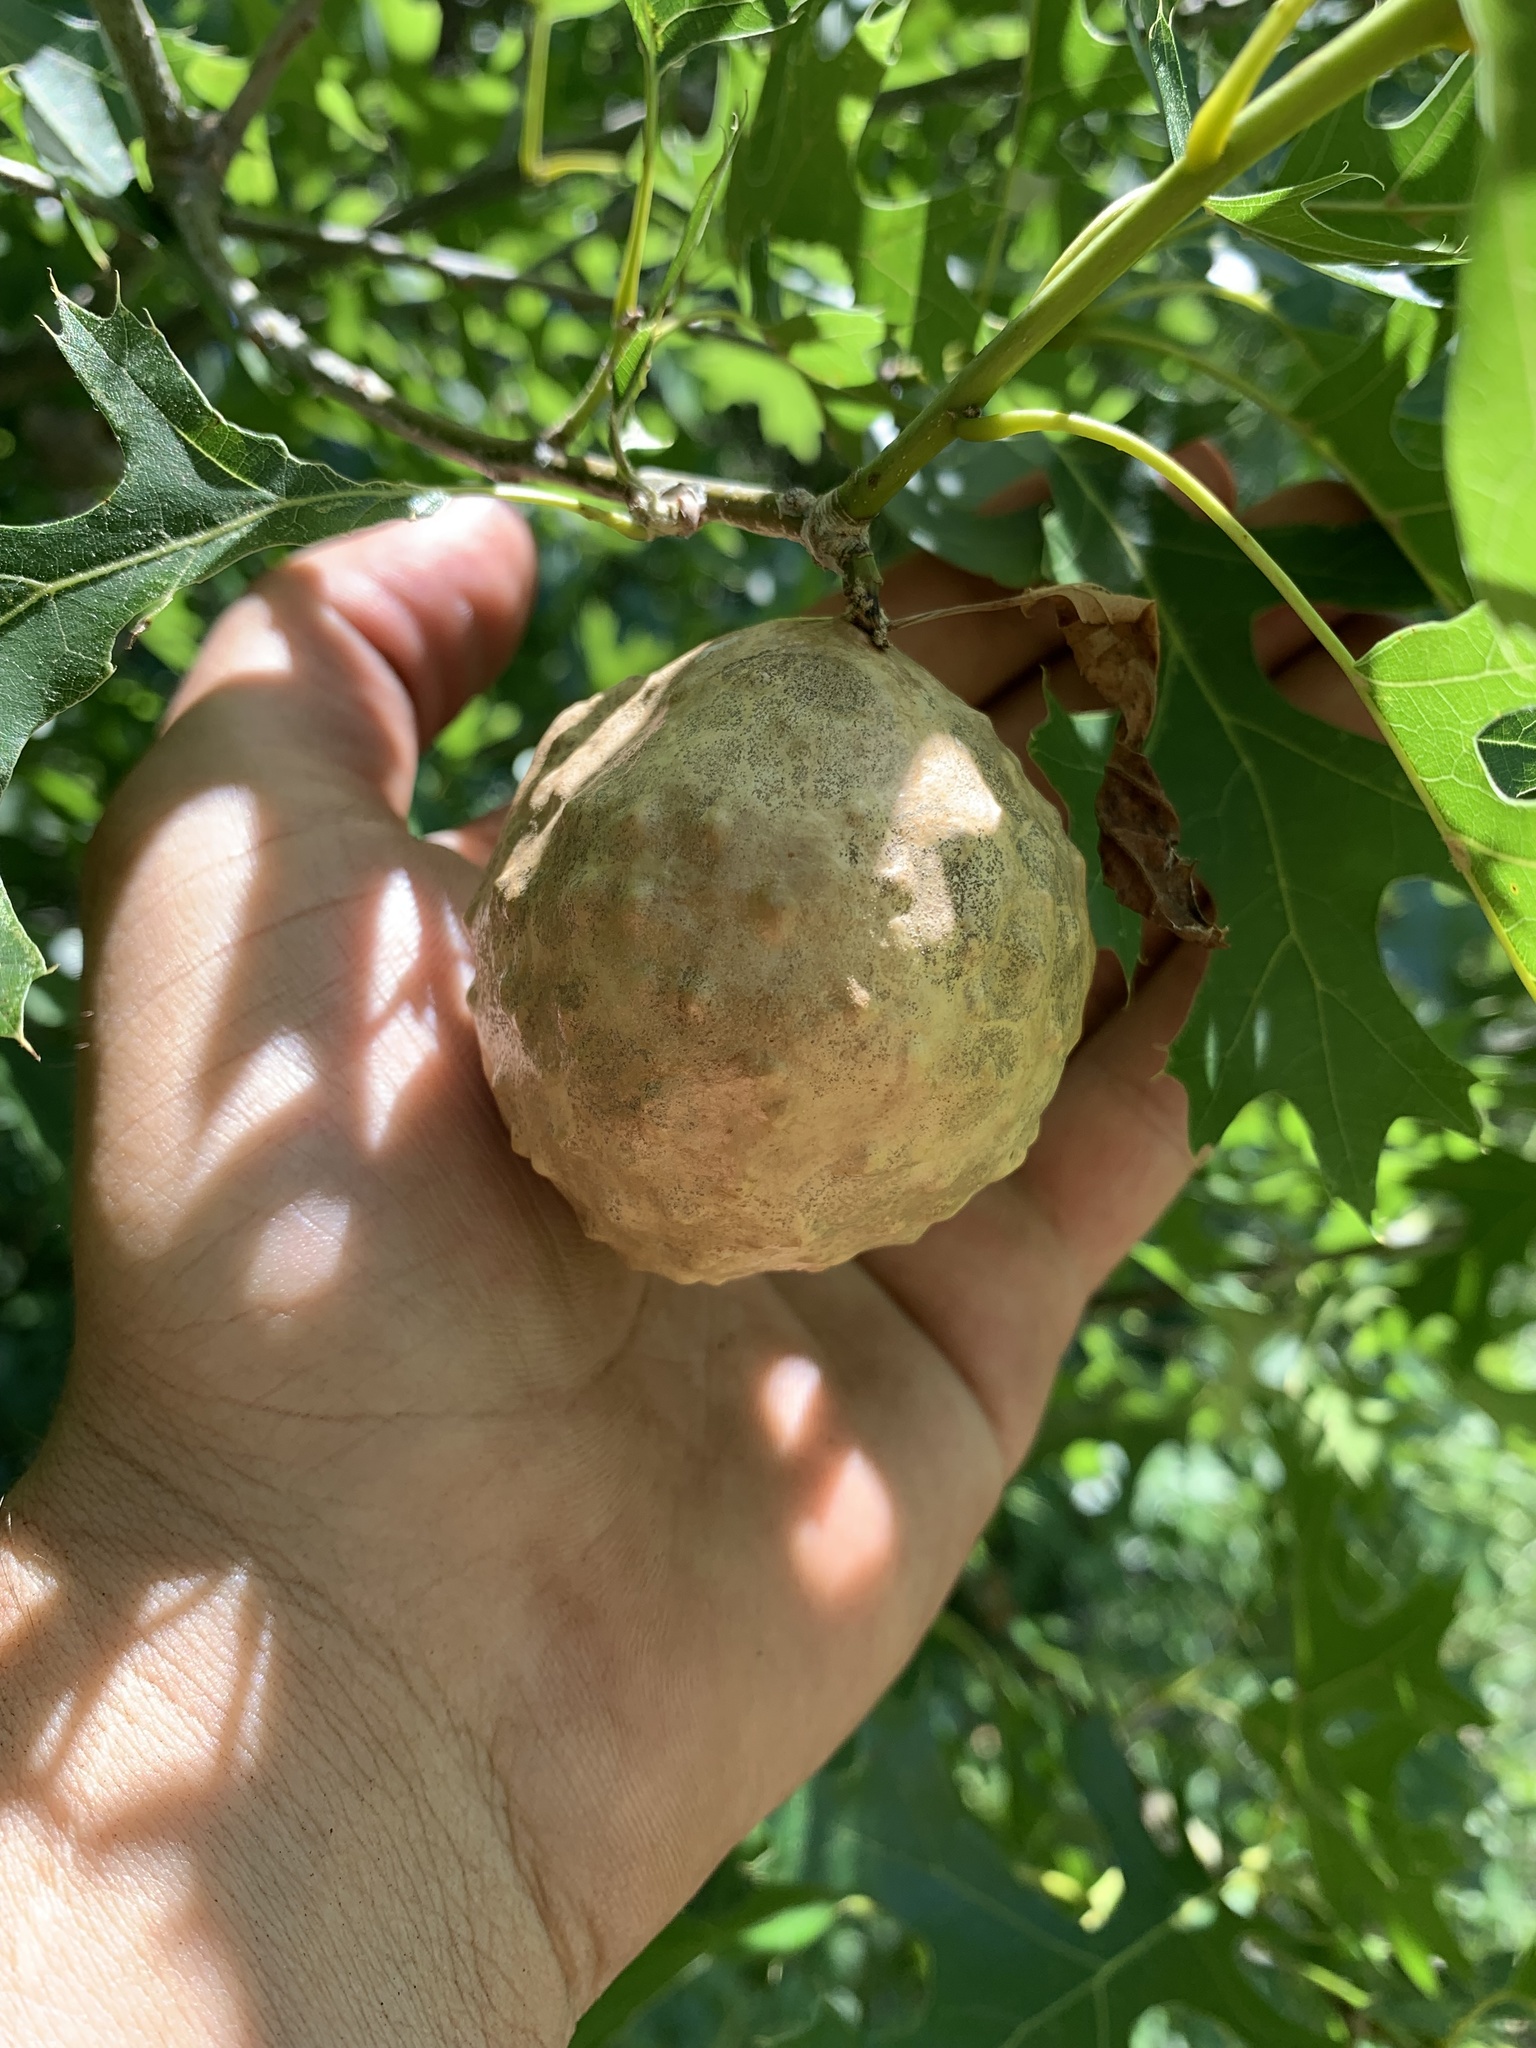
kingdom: Animalia
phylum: Arthropoda
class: Insecta
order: Hymenoptera
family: Cynipidae
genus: Amphibolips
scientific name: Amphibolips
